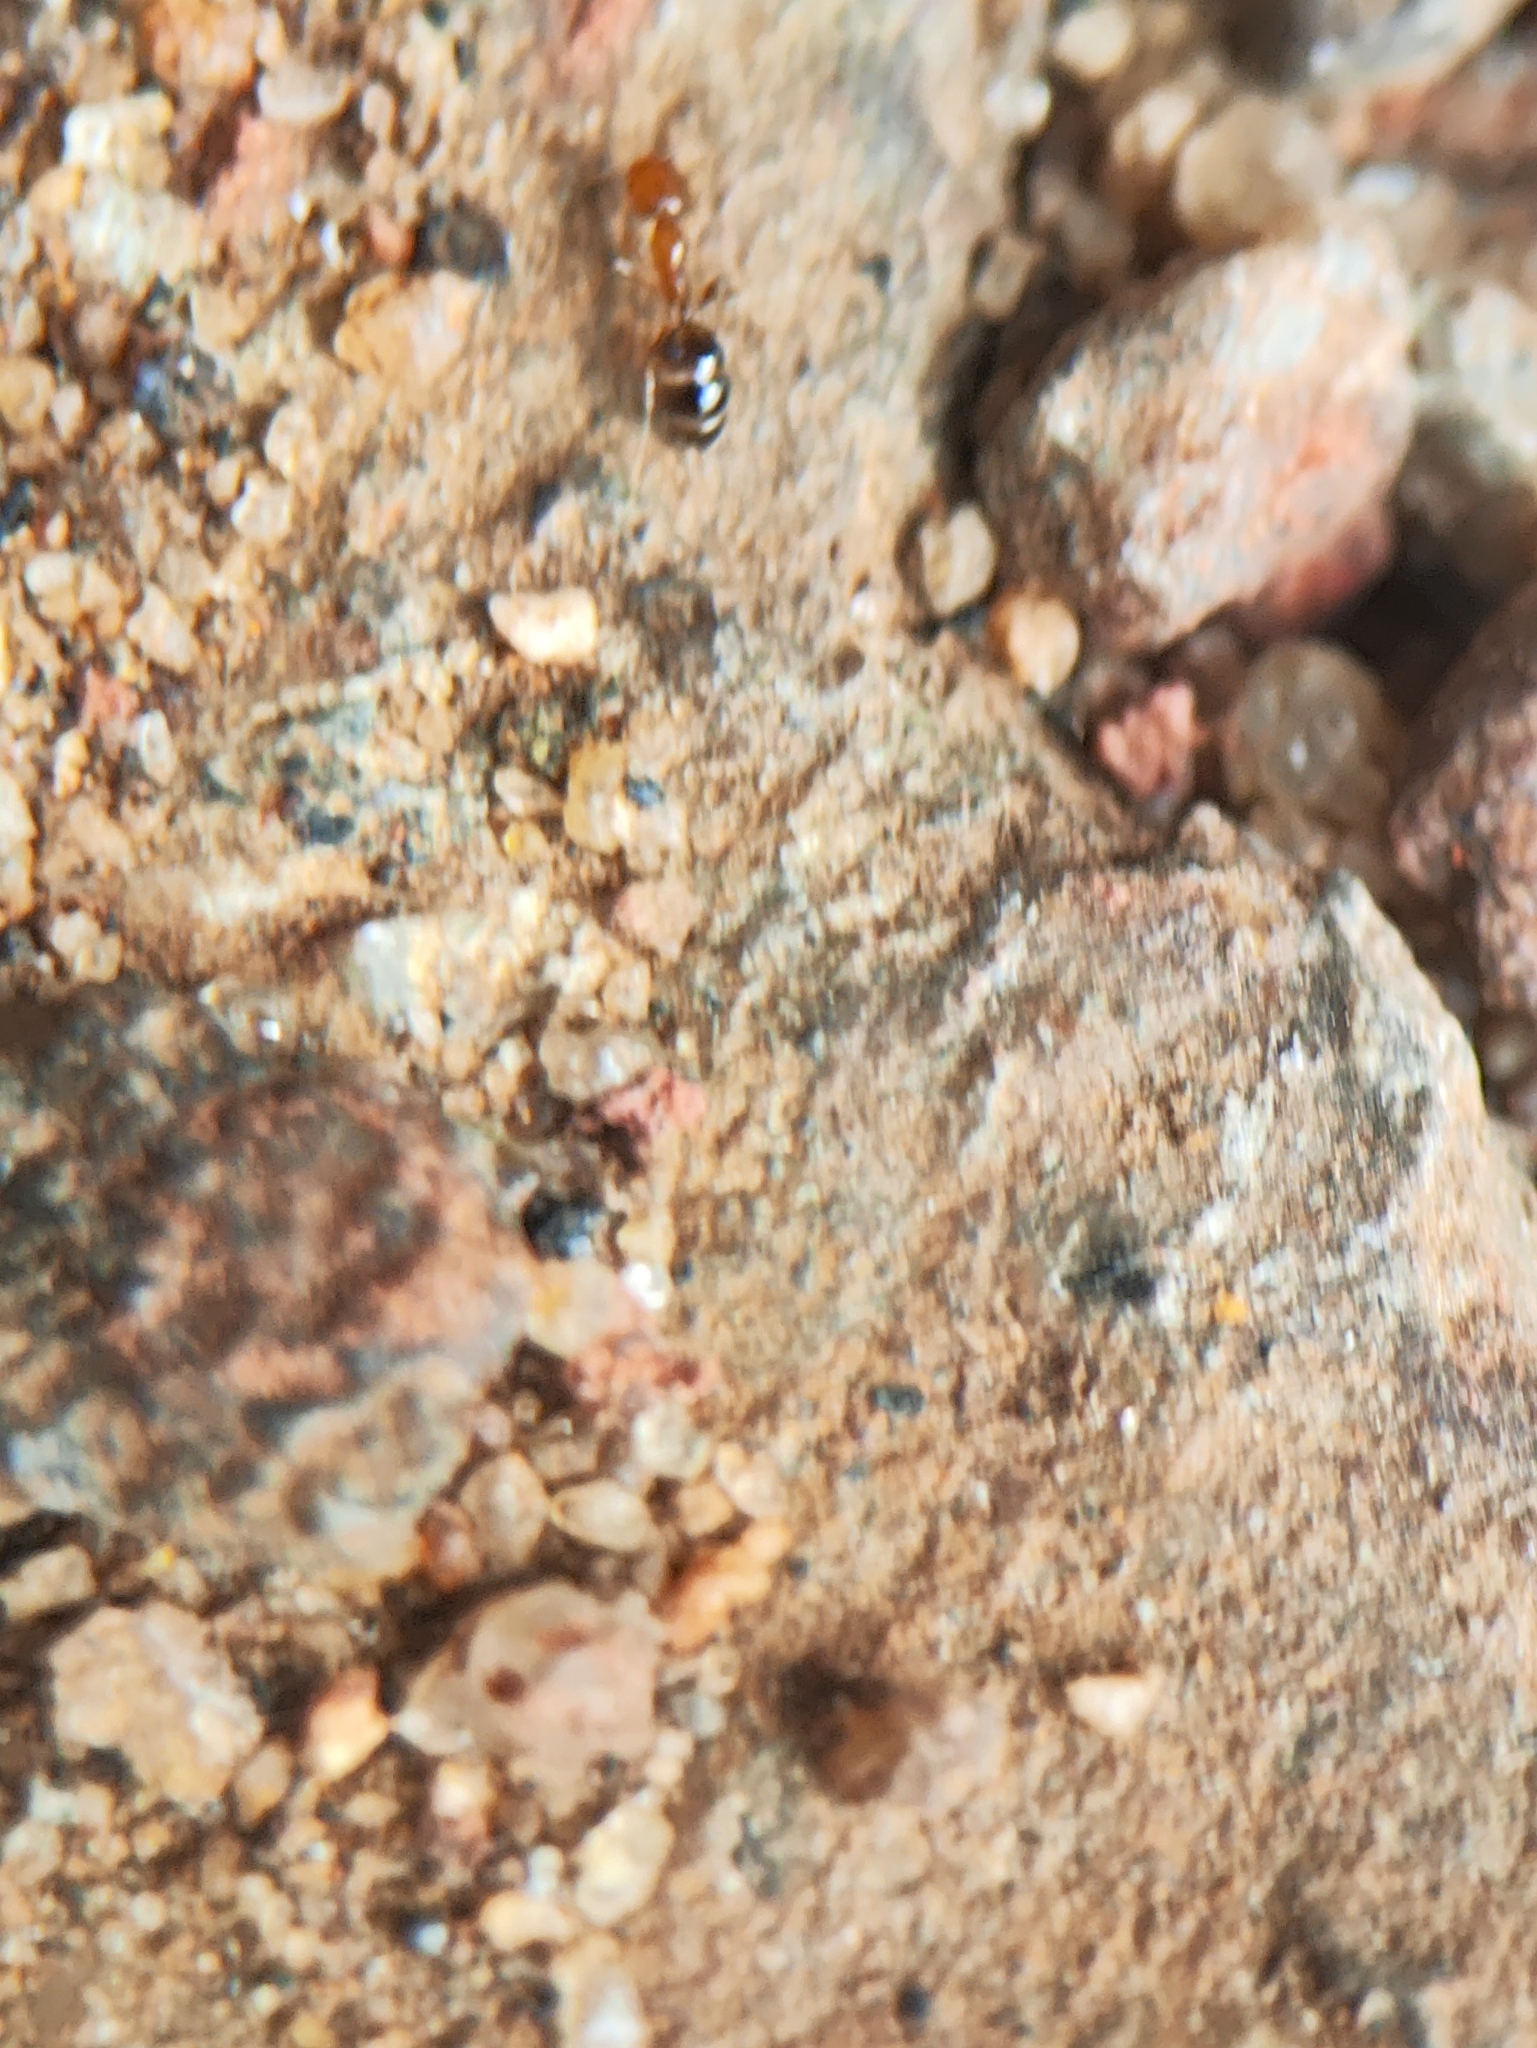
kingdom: Animalia
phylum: Arthropoda
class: Insecta
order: Hymenoptera
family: Formicidae
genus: Monomorium
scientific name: Monomorium destructor
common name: Destructive trailing ant
